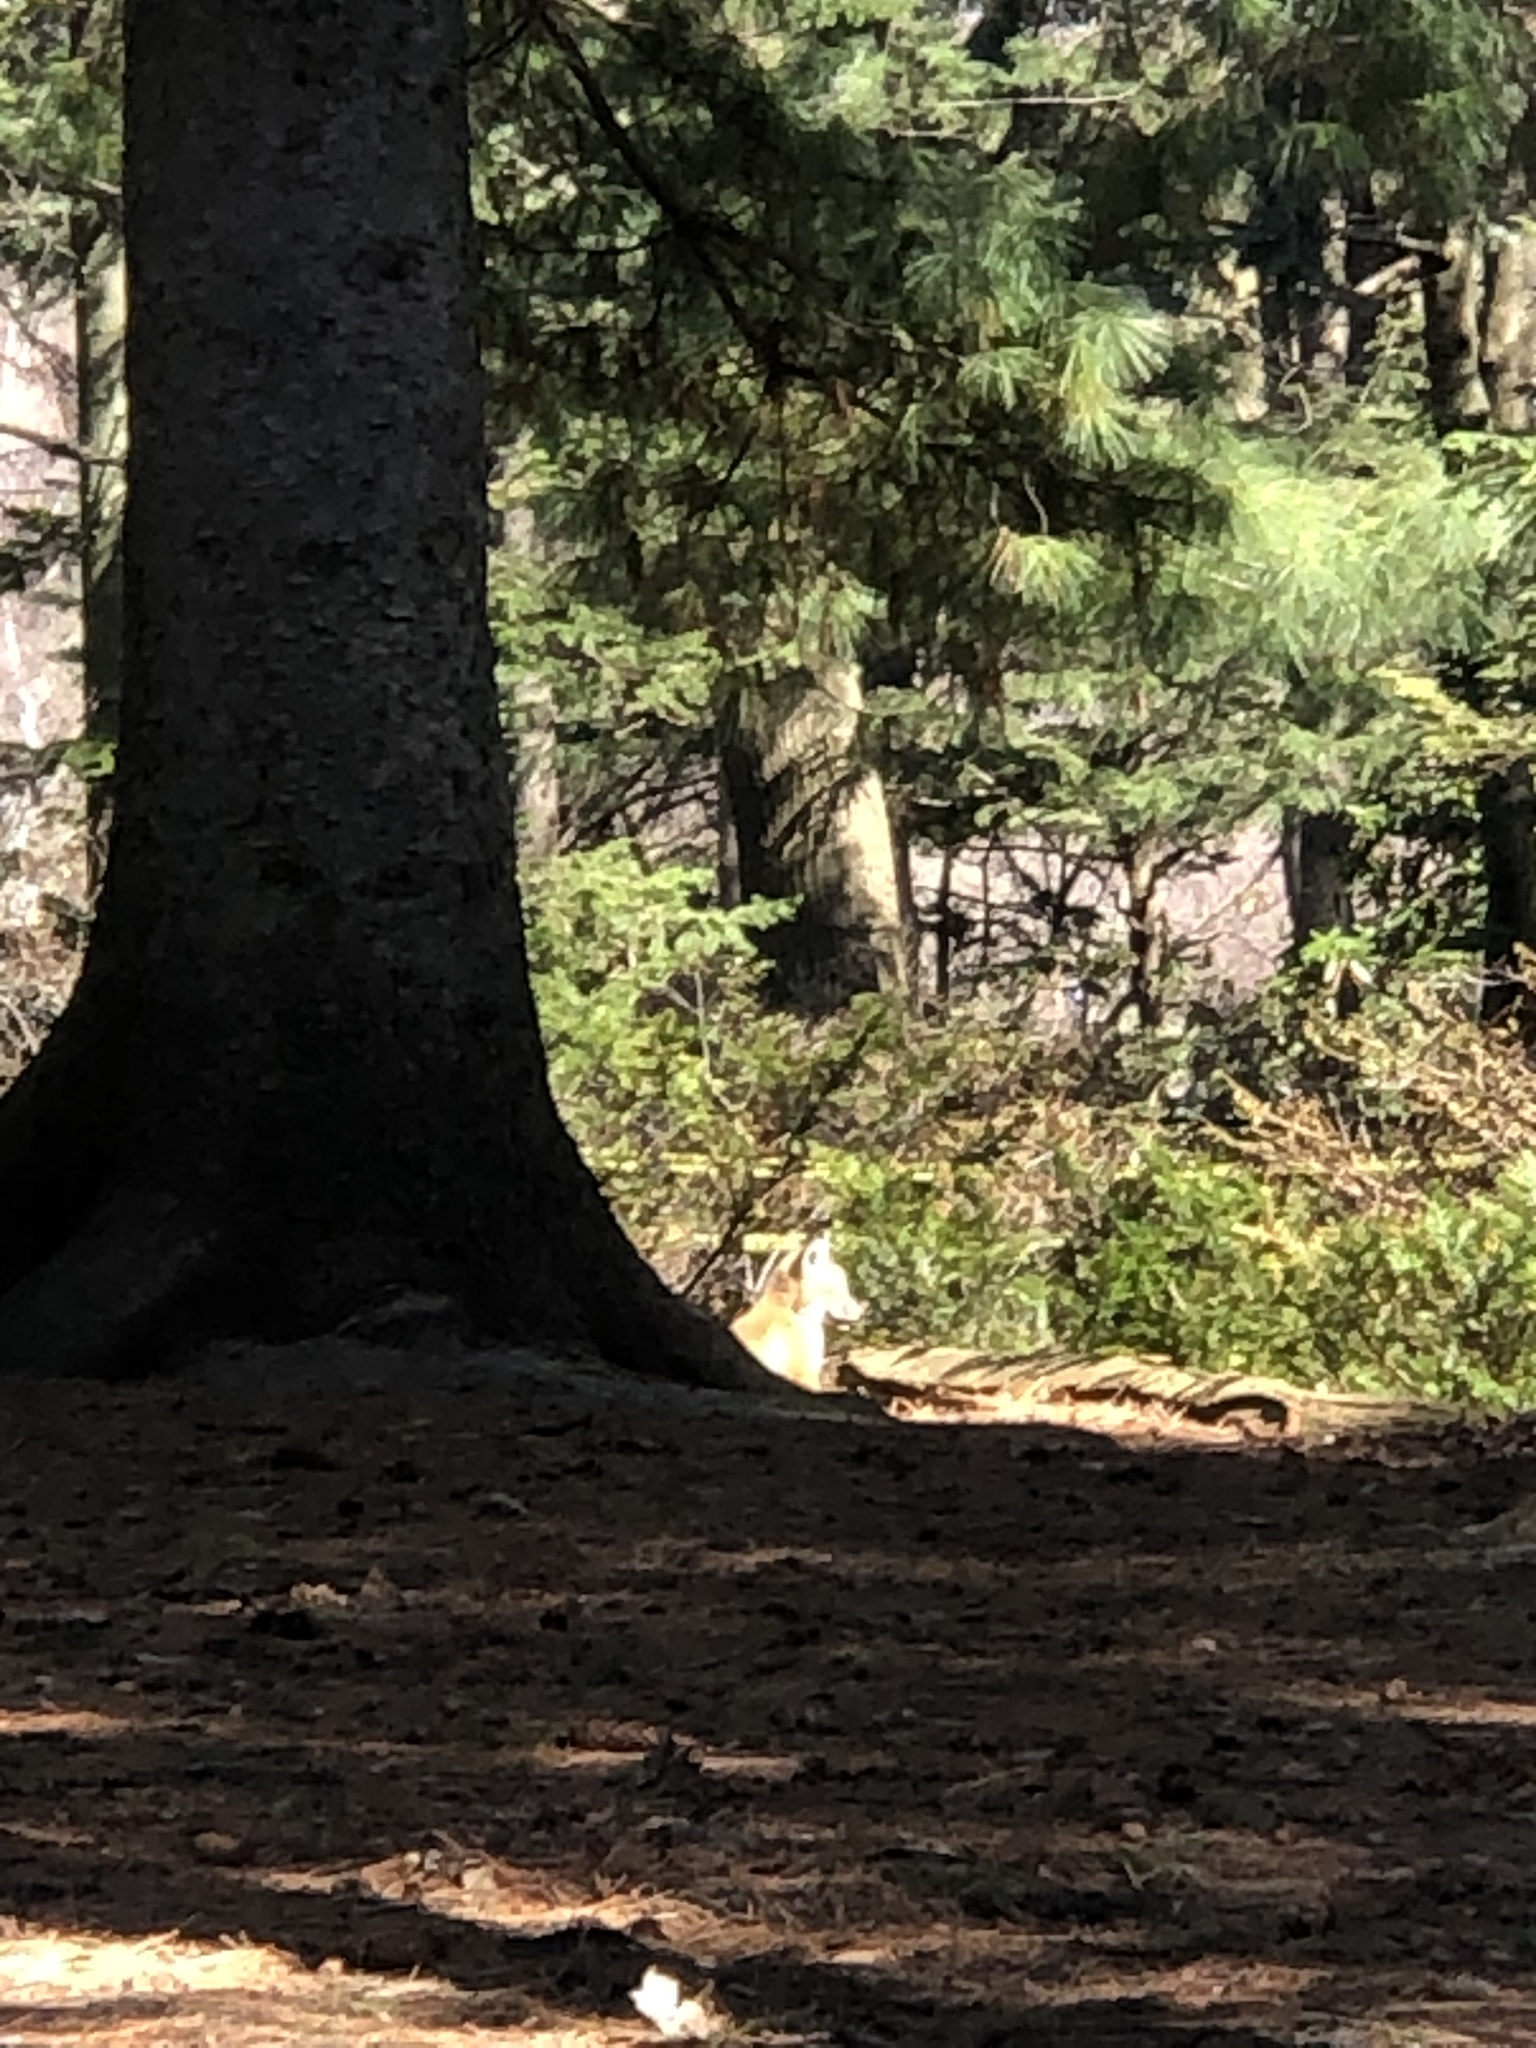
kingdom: Animalia
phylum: Chordata
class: Mammalia
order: Carnivora
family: Canidae
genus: Vulpes
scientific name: Vulpes vulpes
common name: Red fox
